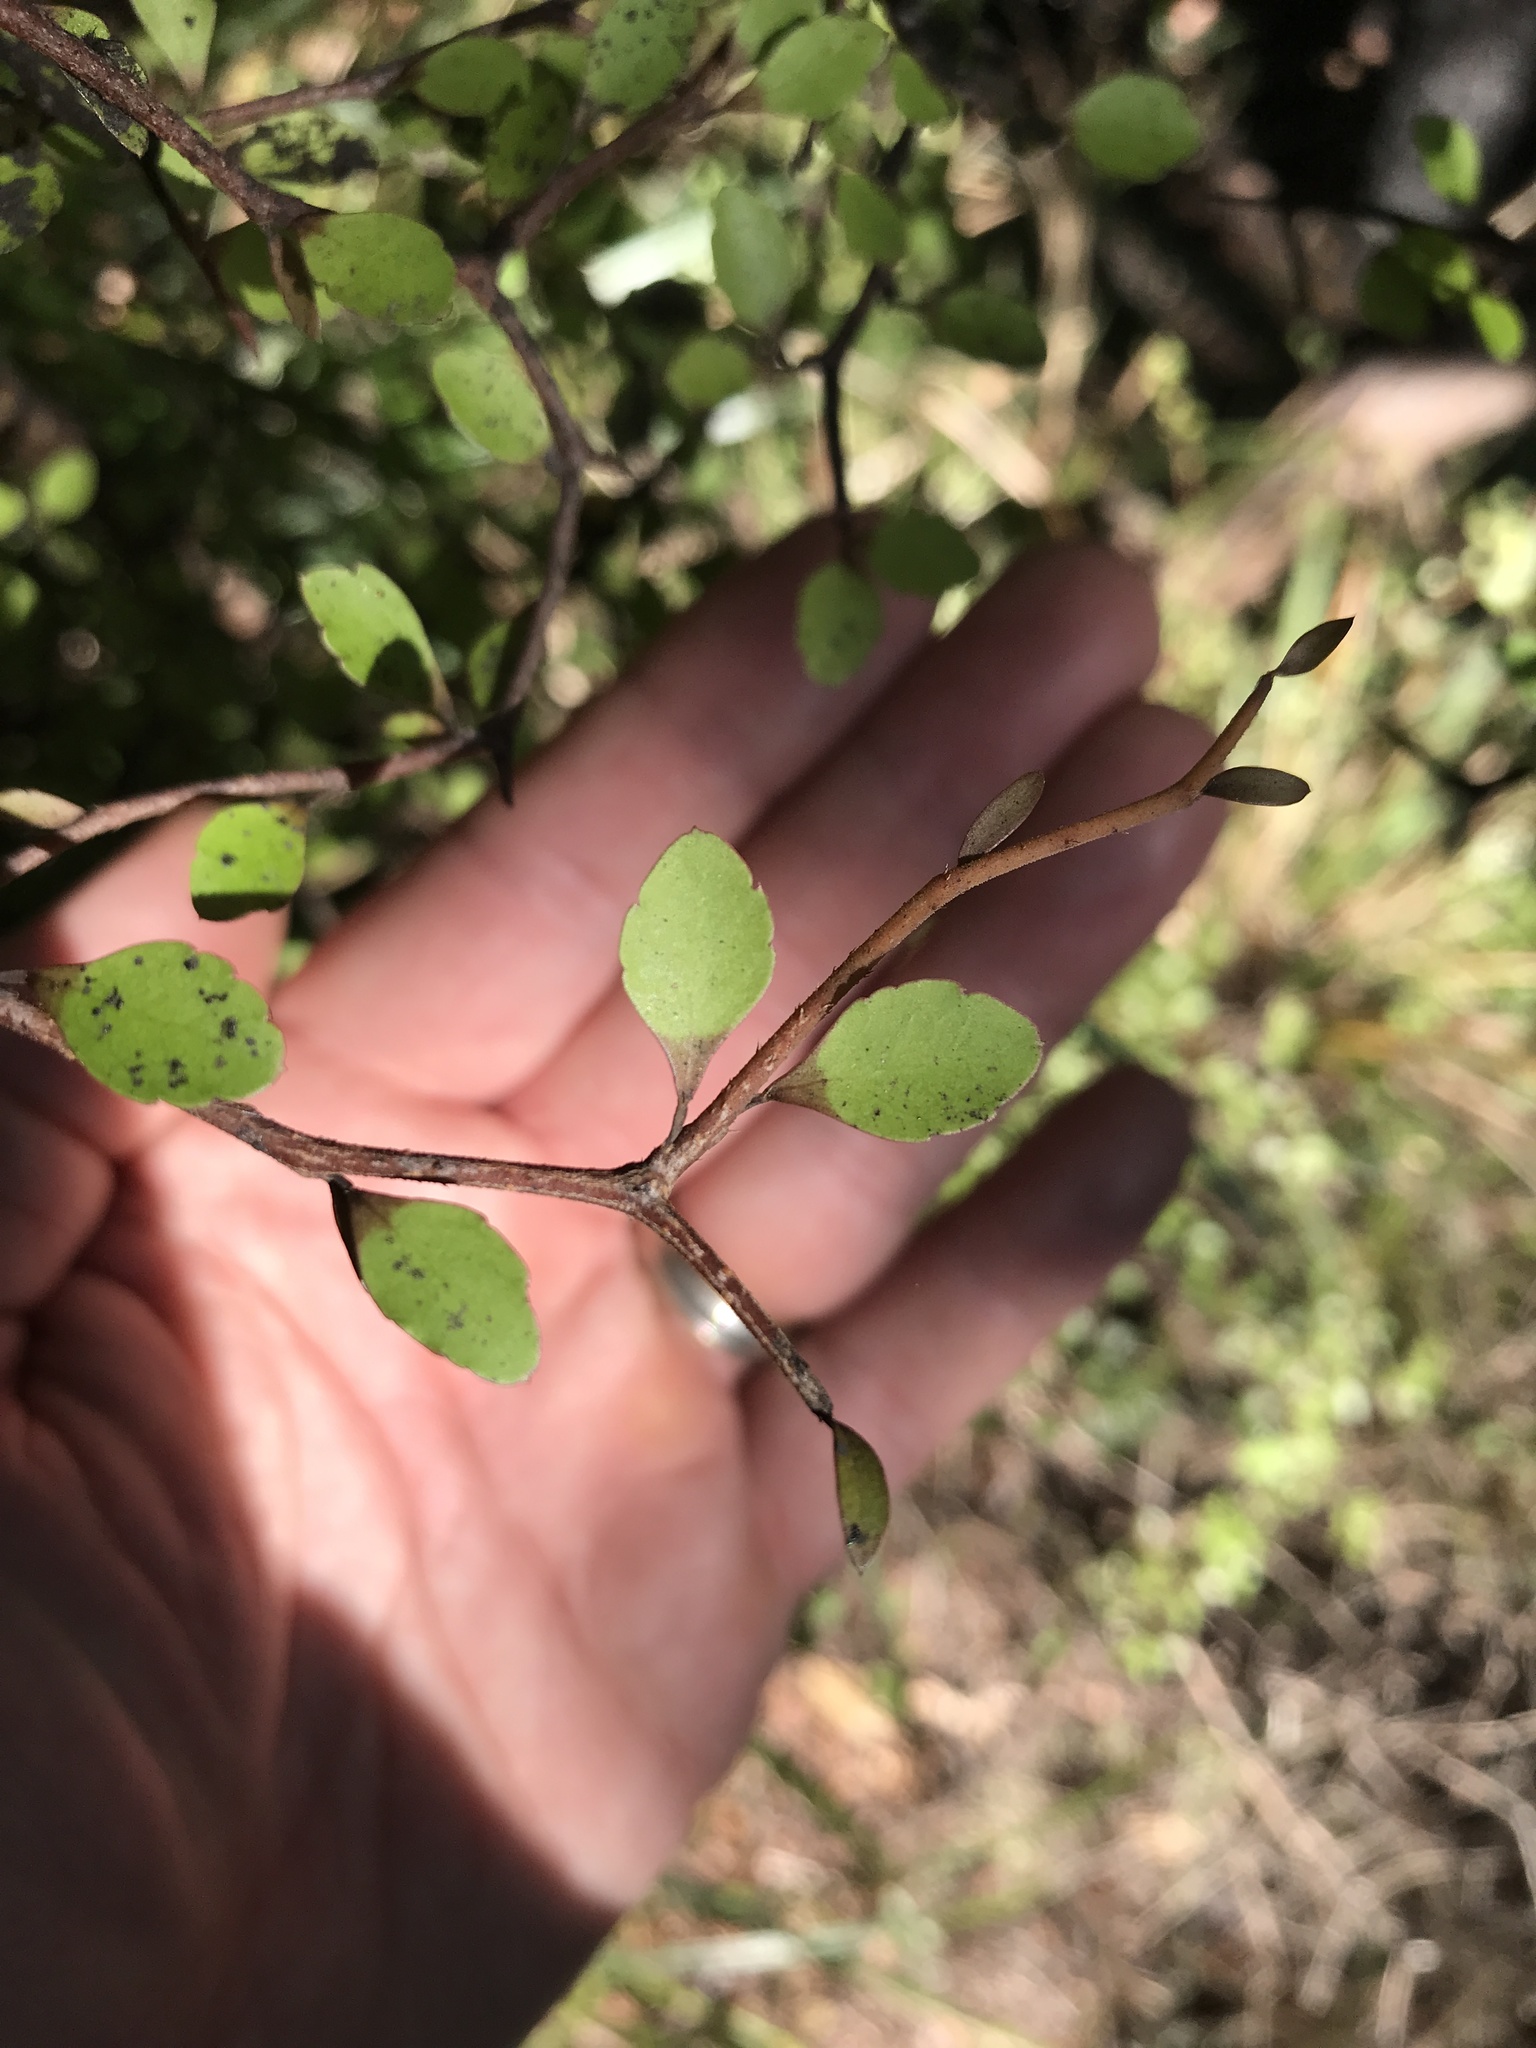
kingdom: Plantae
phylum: Tracheophyta
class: Magnoliopsida
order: Apiales
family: Araliaceae
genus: Raukaua
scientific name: Raukaua anomalus
